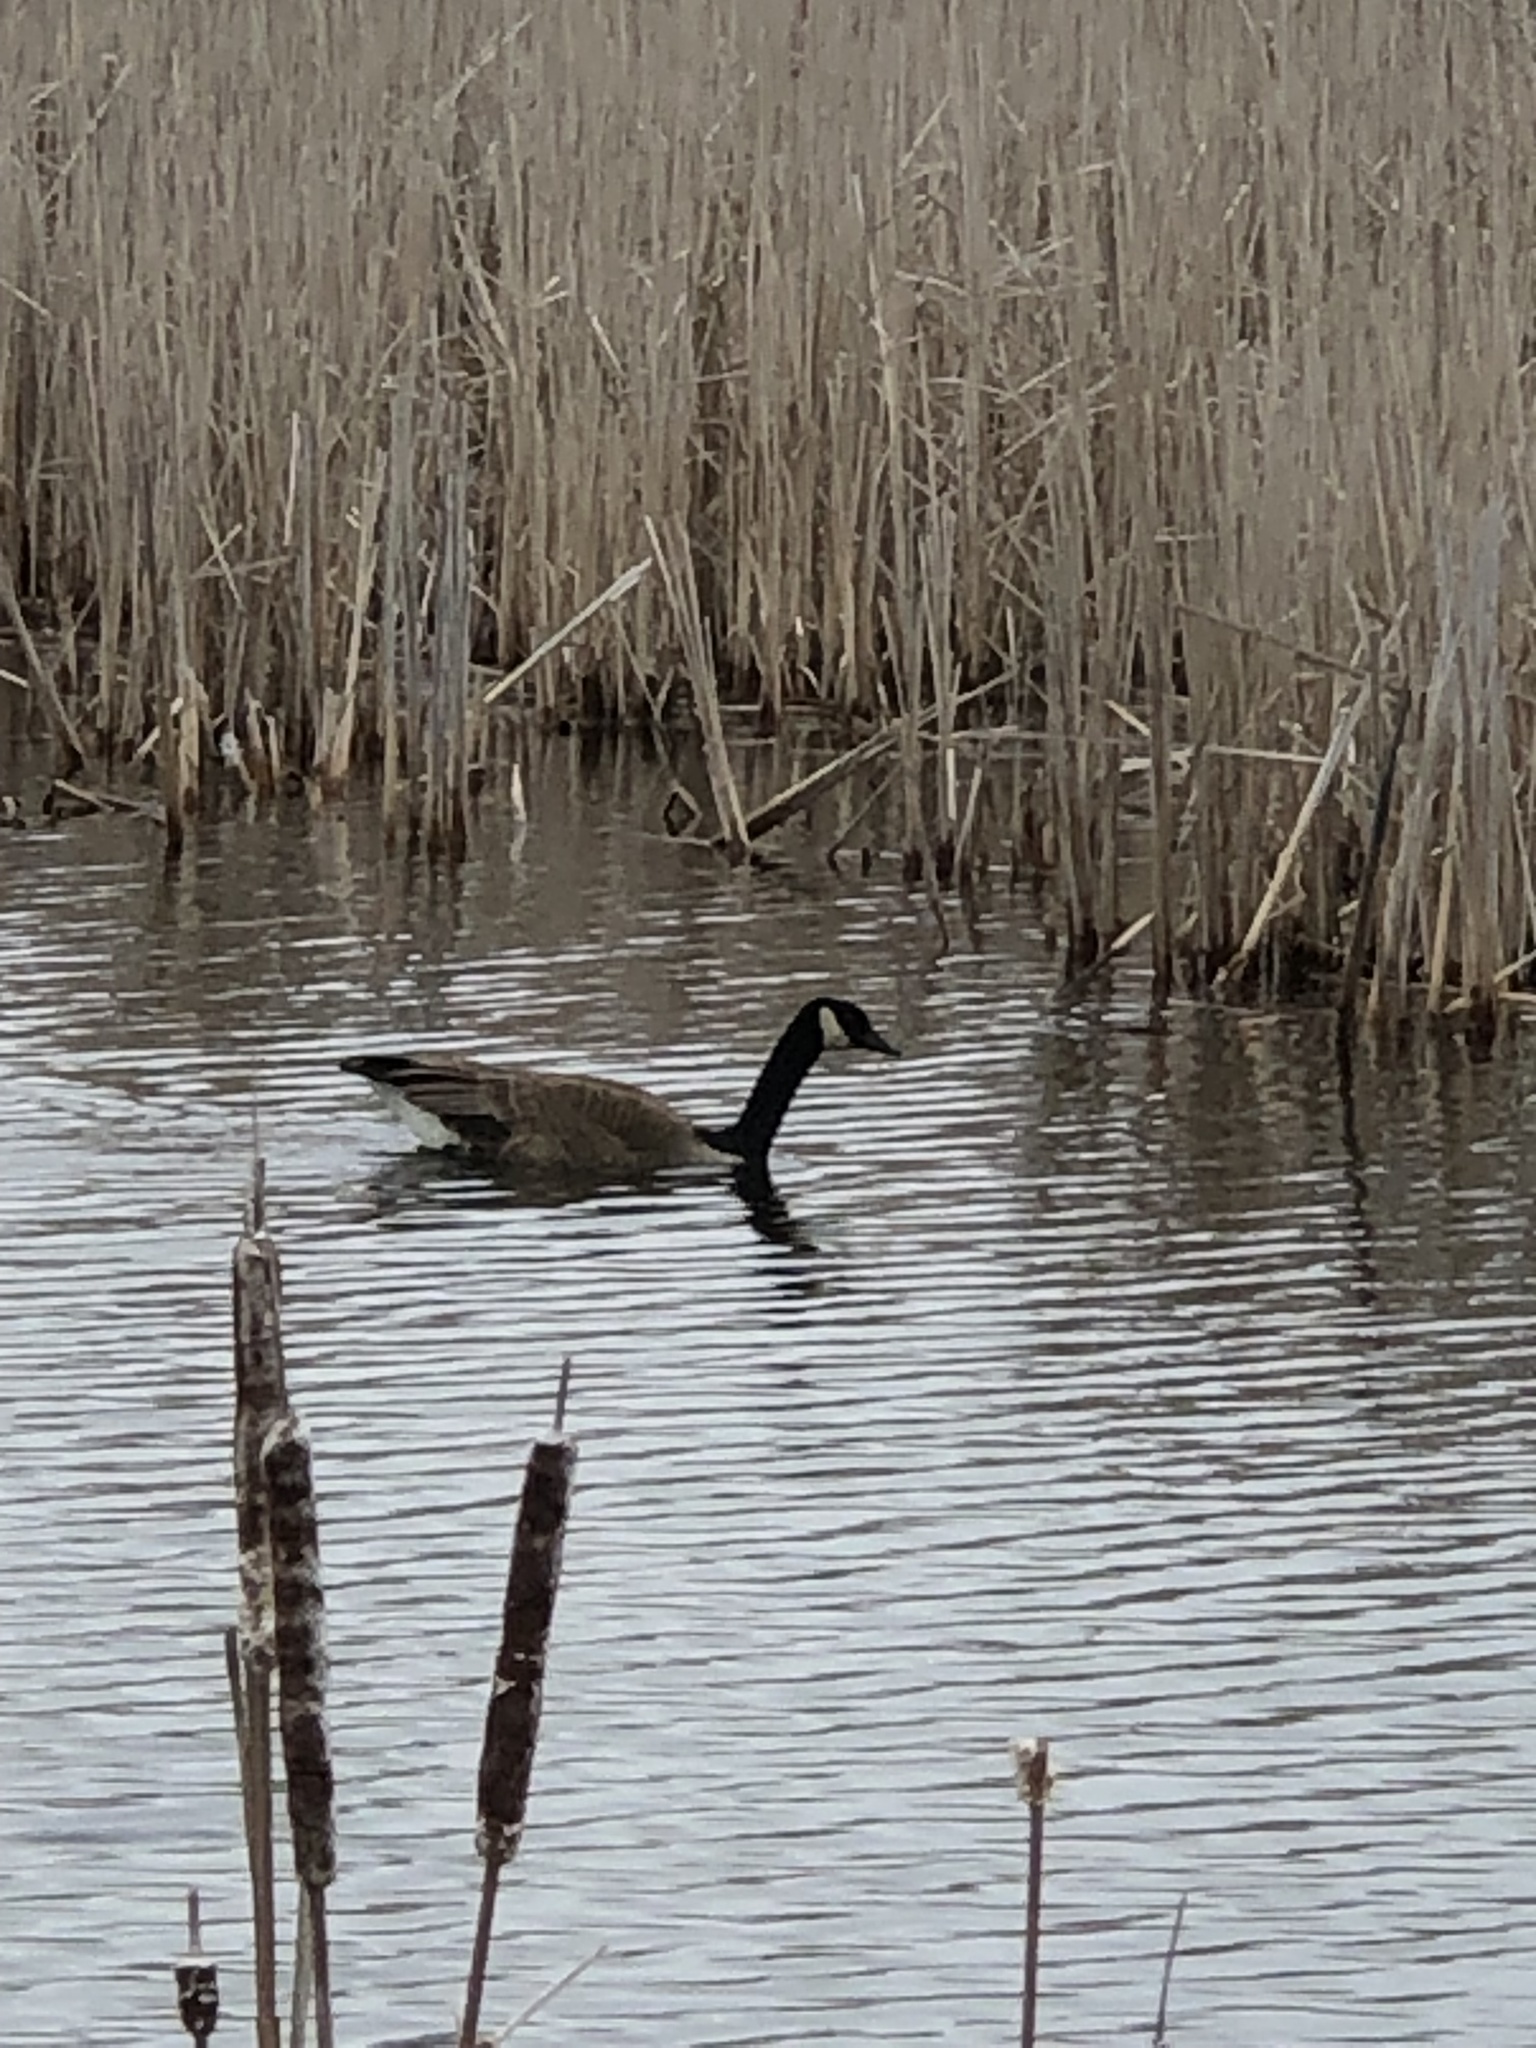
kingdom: Animalia
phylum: Chordata
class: Aves
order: Anseriformes
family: Anatidae
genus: Branta
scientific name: Branta canadensis
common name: Canada goose
